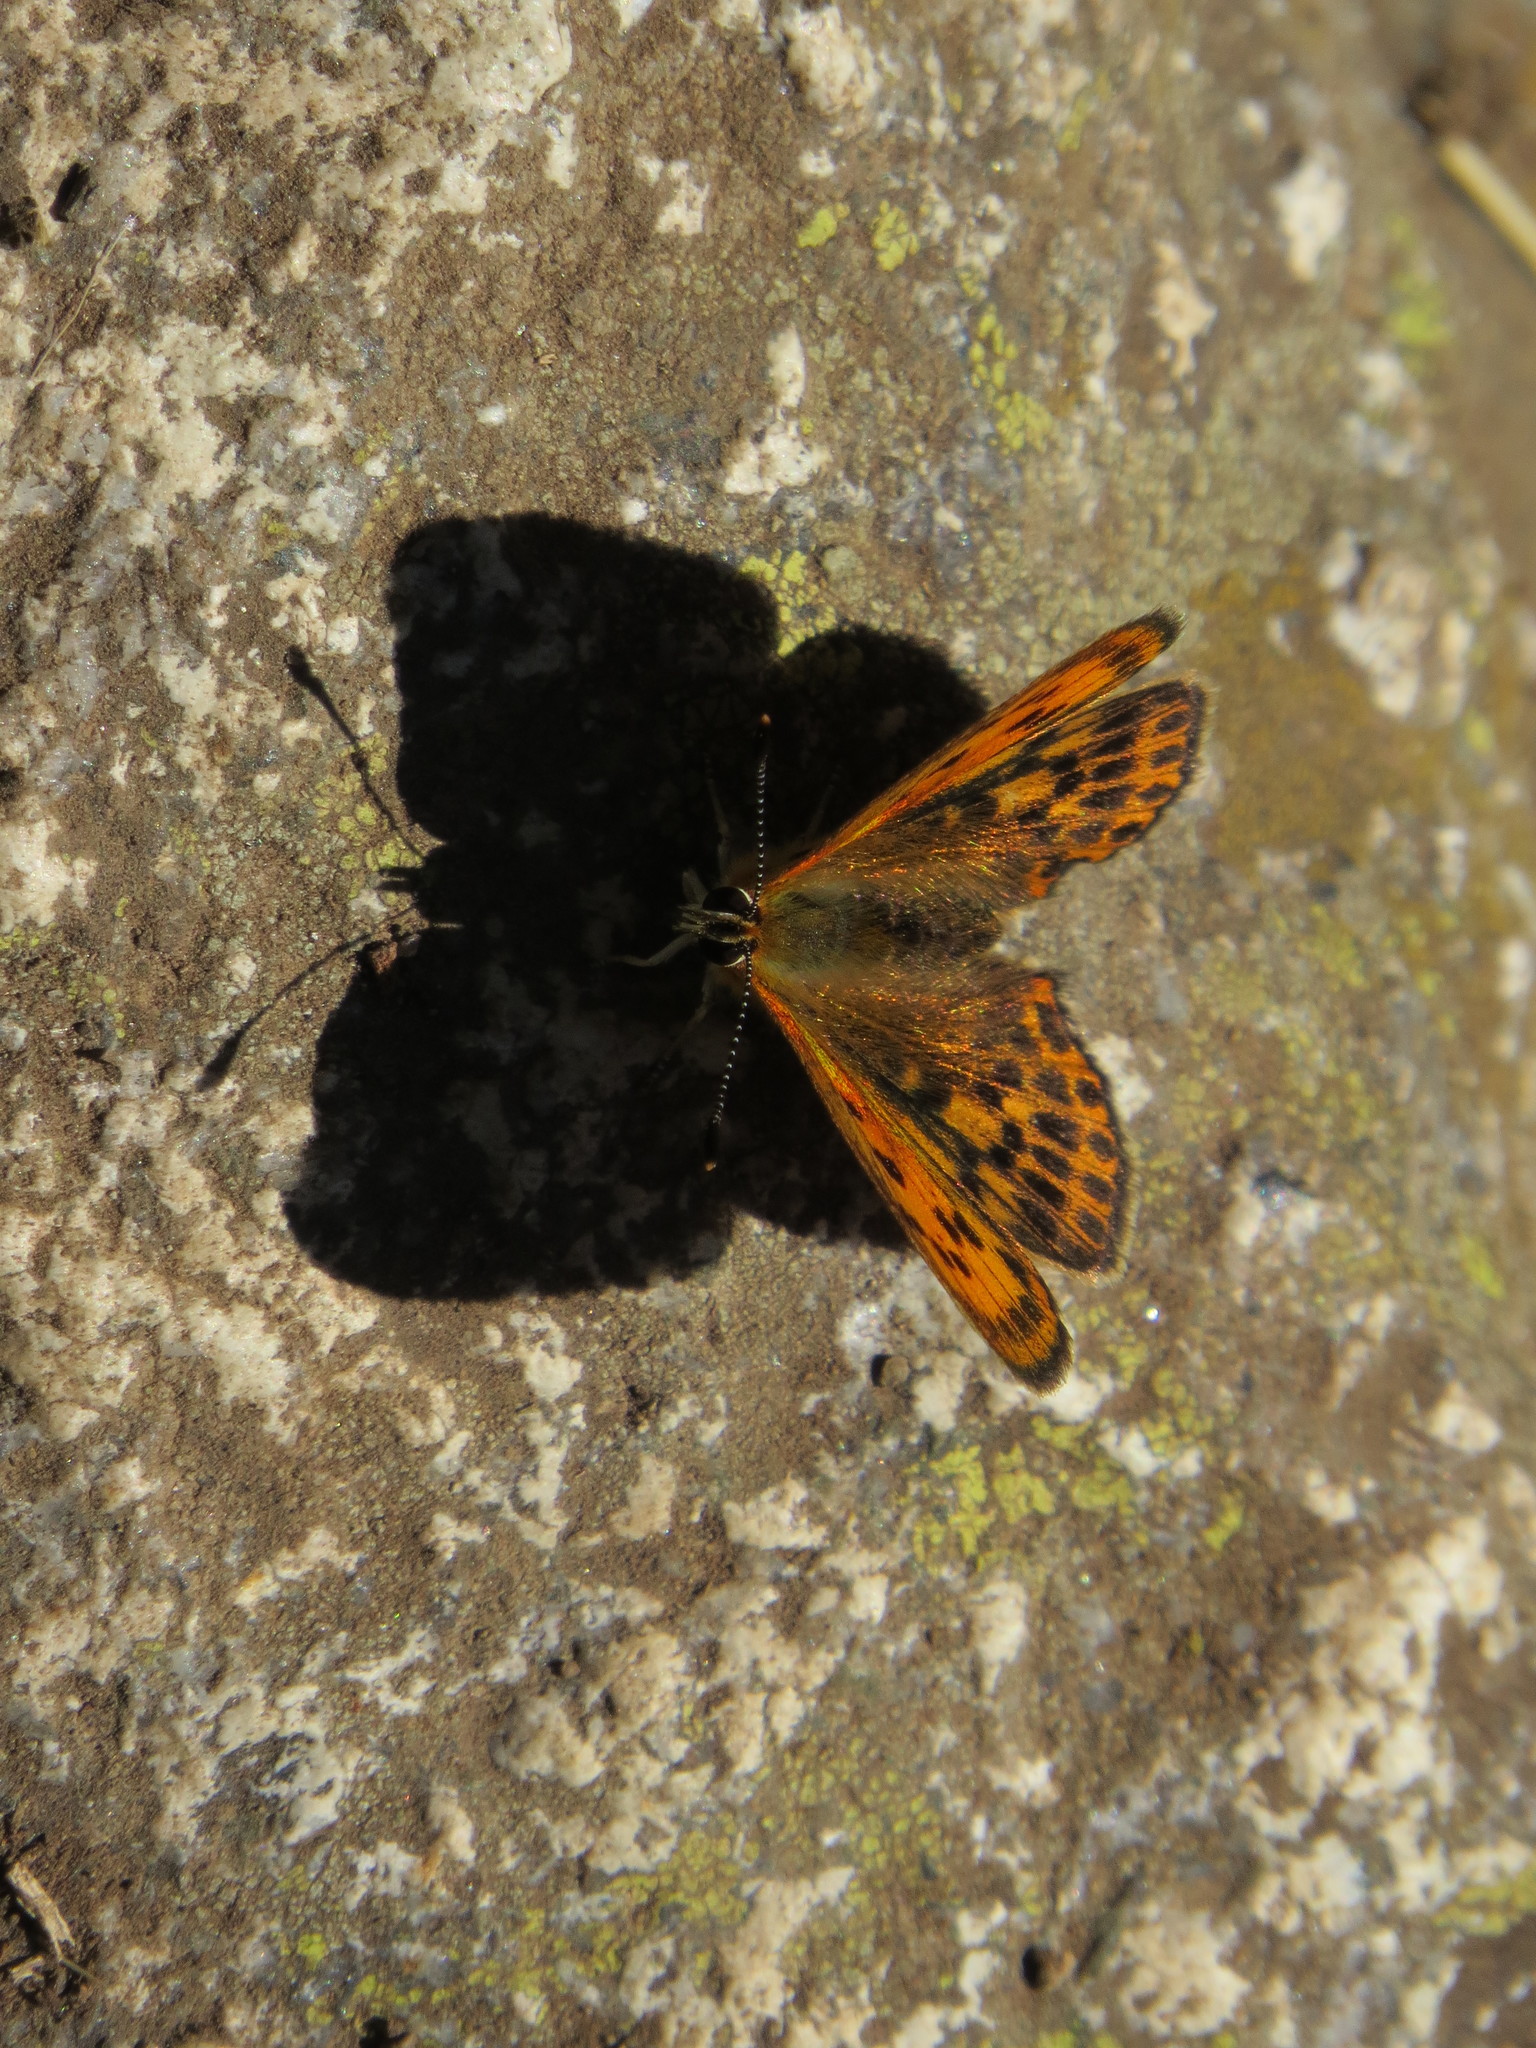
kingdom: Animalia
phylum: Arthropoda
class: Insecta
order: Lepidoptera
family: Lycaenidae
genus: Lycaena
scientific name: Lycaena virgaureae
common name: Scarce copper
